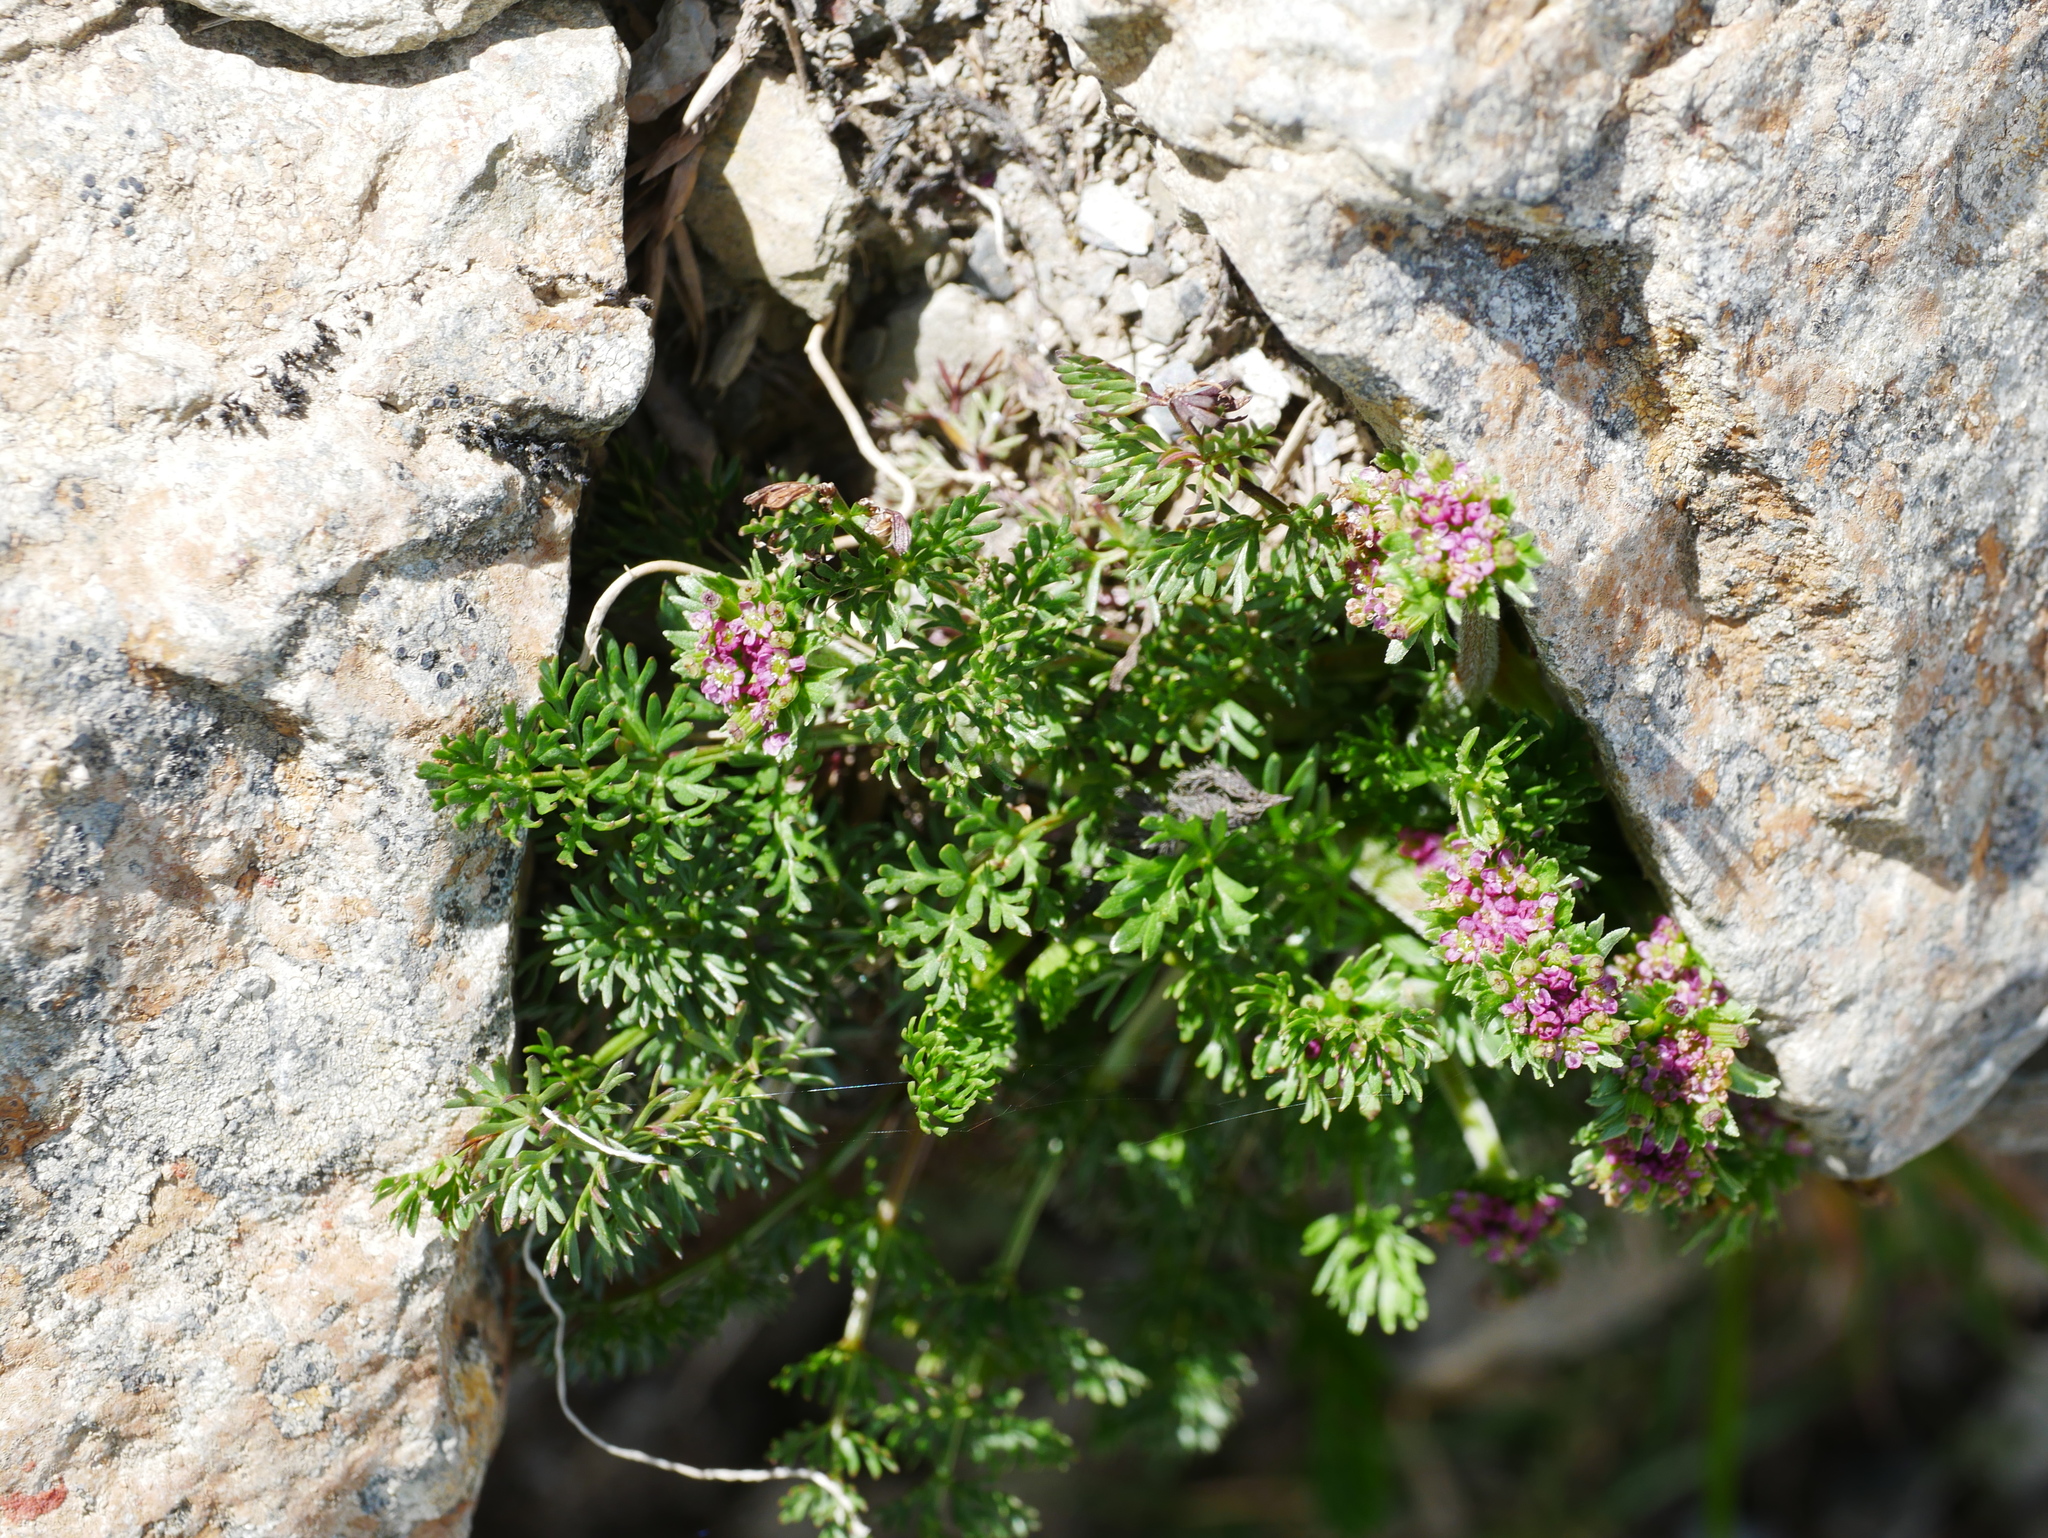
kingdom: Plantae
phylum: Tracheophyta
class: Magnoliopsida
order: Apiales
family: Apiaceae
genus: Chaerophyllum
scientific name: Chaerophyllum taiwanianum
